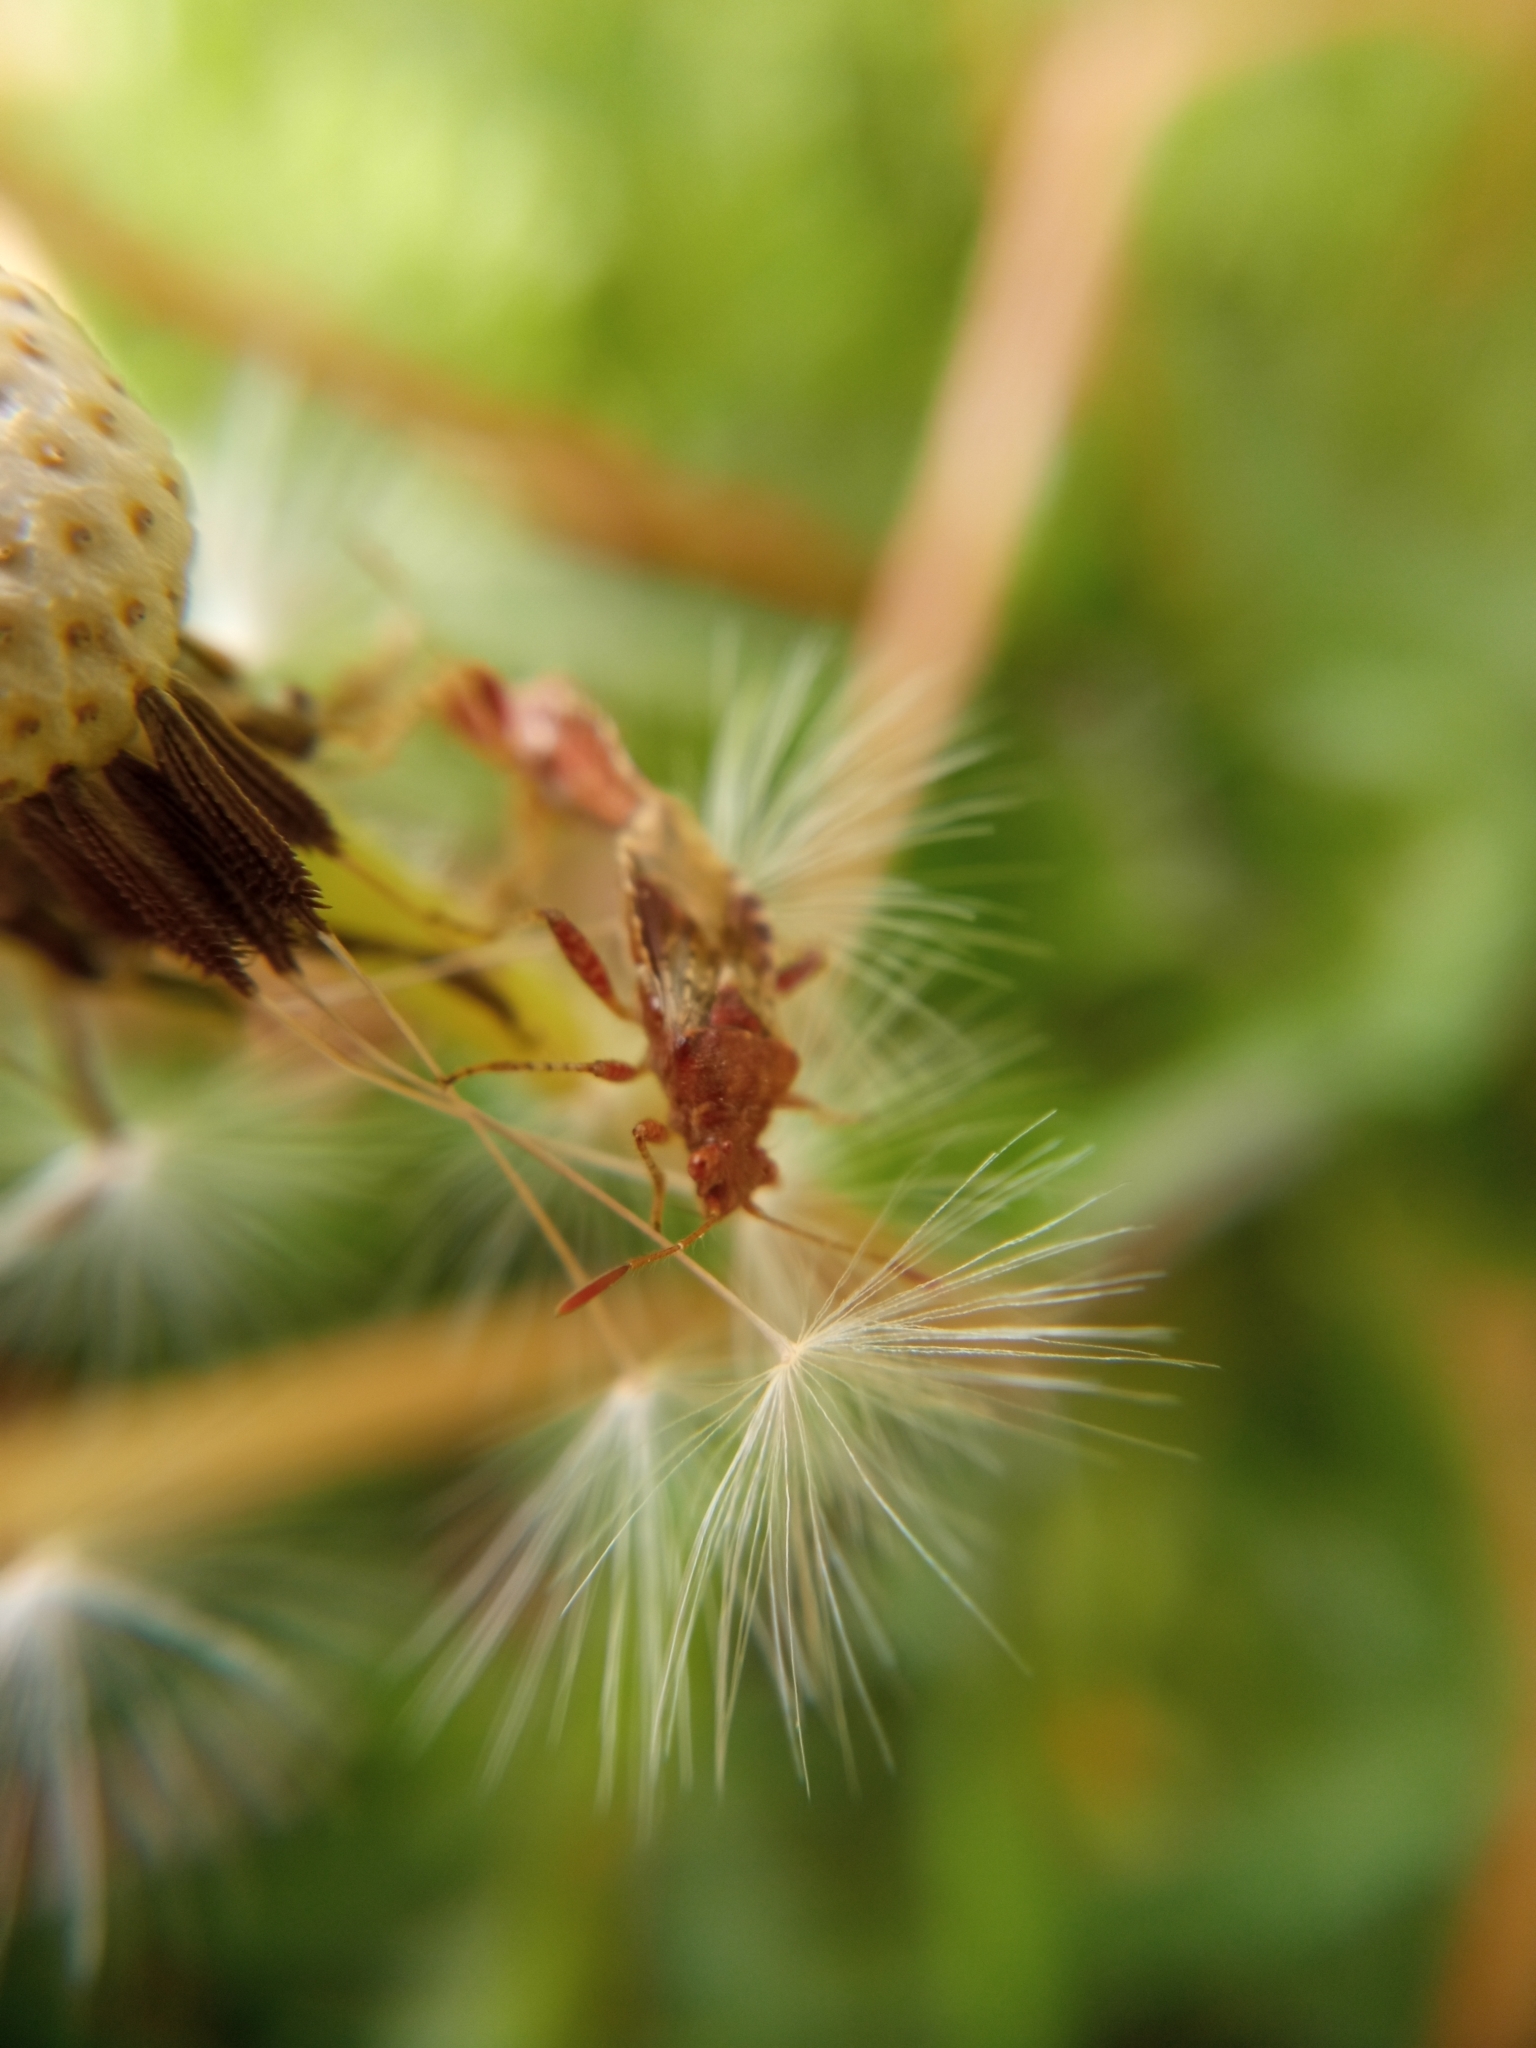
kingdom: Animalia
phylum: Arthropoda
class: Insecta
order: Hemiptera
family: Rhopalidae
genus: Rhopalus
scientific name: Rhopalus subrufus
